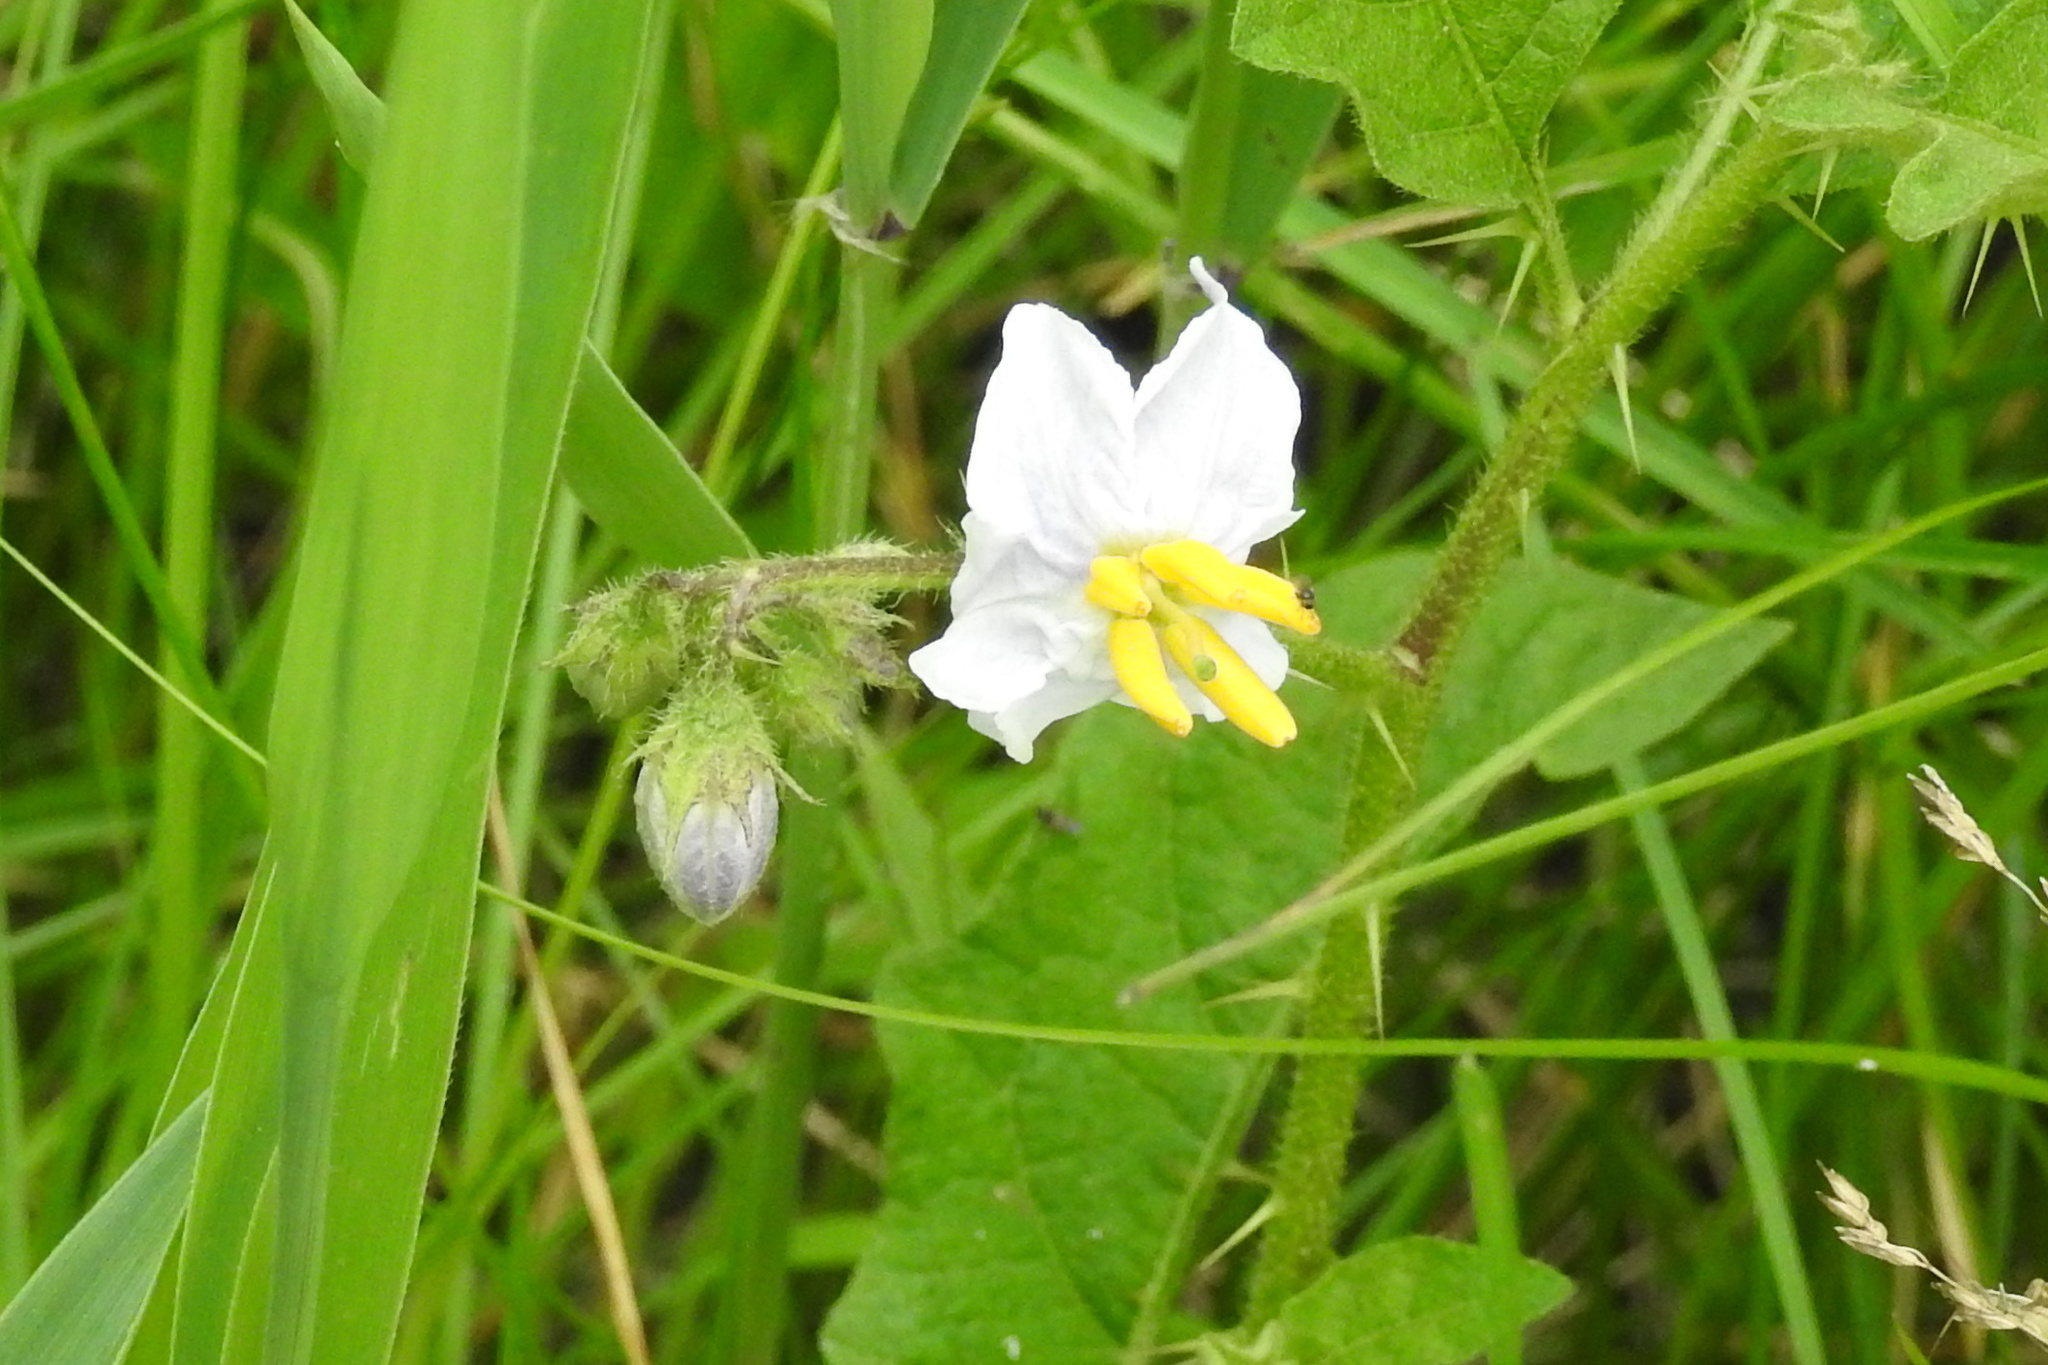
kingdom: Plantae
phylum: Tracheophyta
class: Magnoliopsida
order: Solanales
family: Solanaceae
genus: Solanum
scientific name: Solanum carolinense
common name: Horse-nettle
